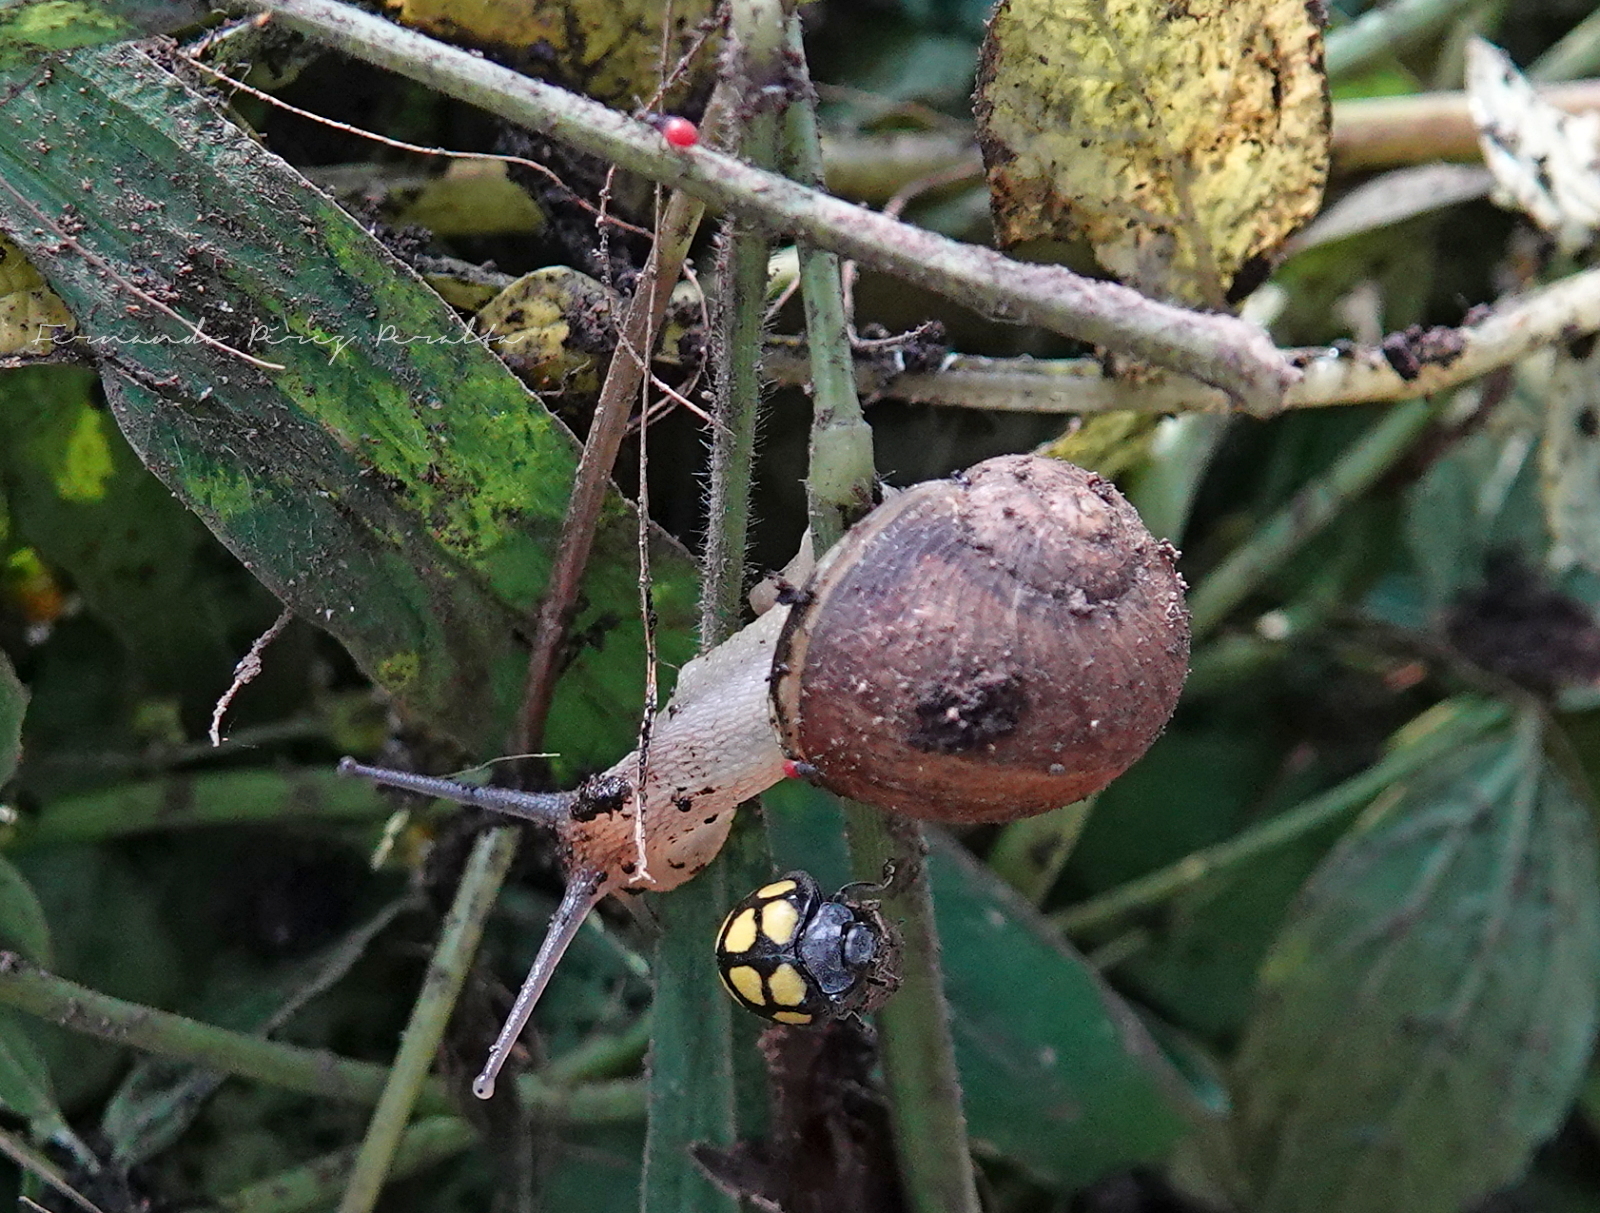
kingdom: Animalia
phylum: Mollusca
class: Gastropoda
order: Stylommatophora
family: Helicidae
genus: Cornu
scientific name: Cornu aspersum
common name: Brown garden snail
